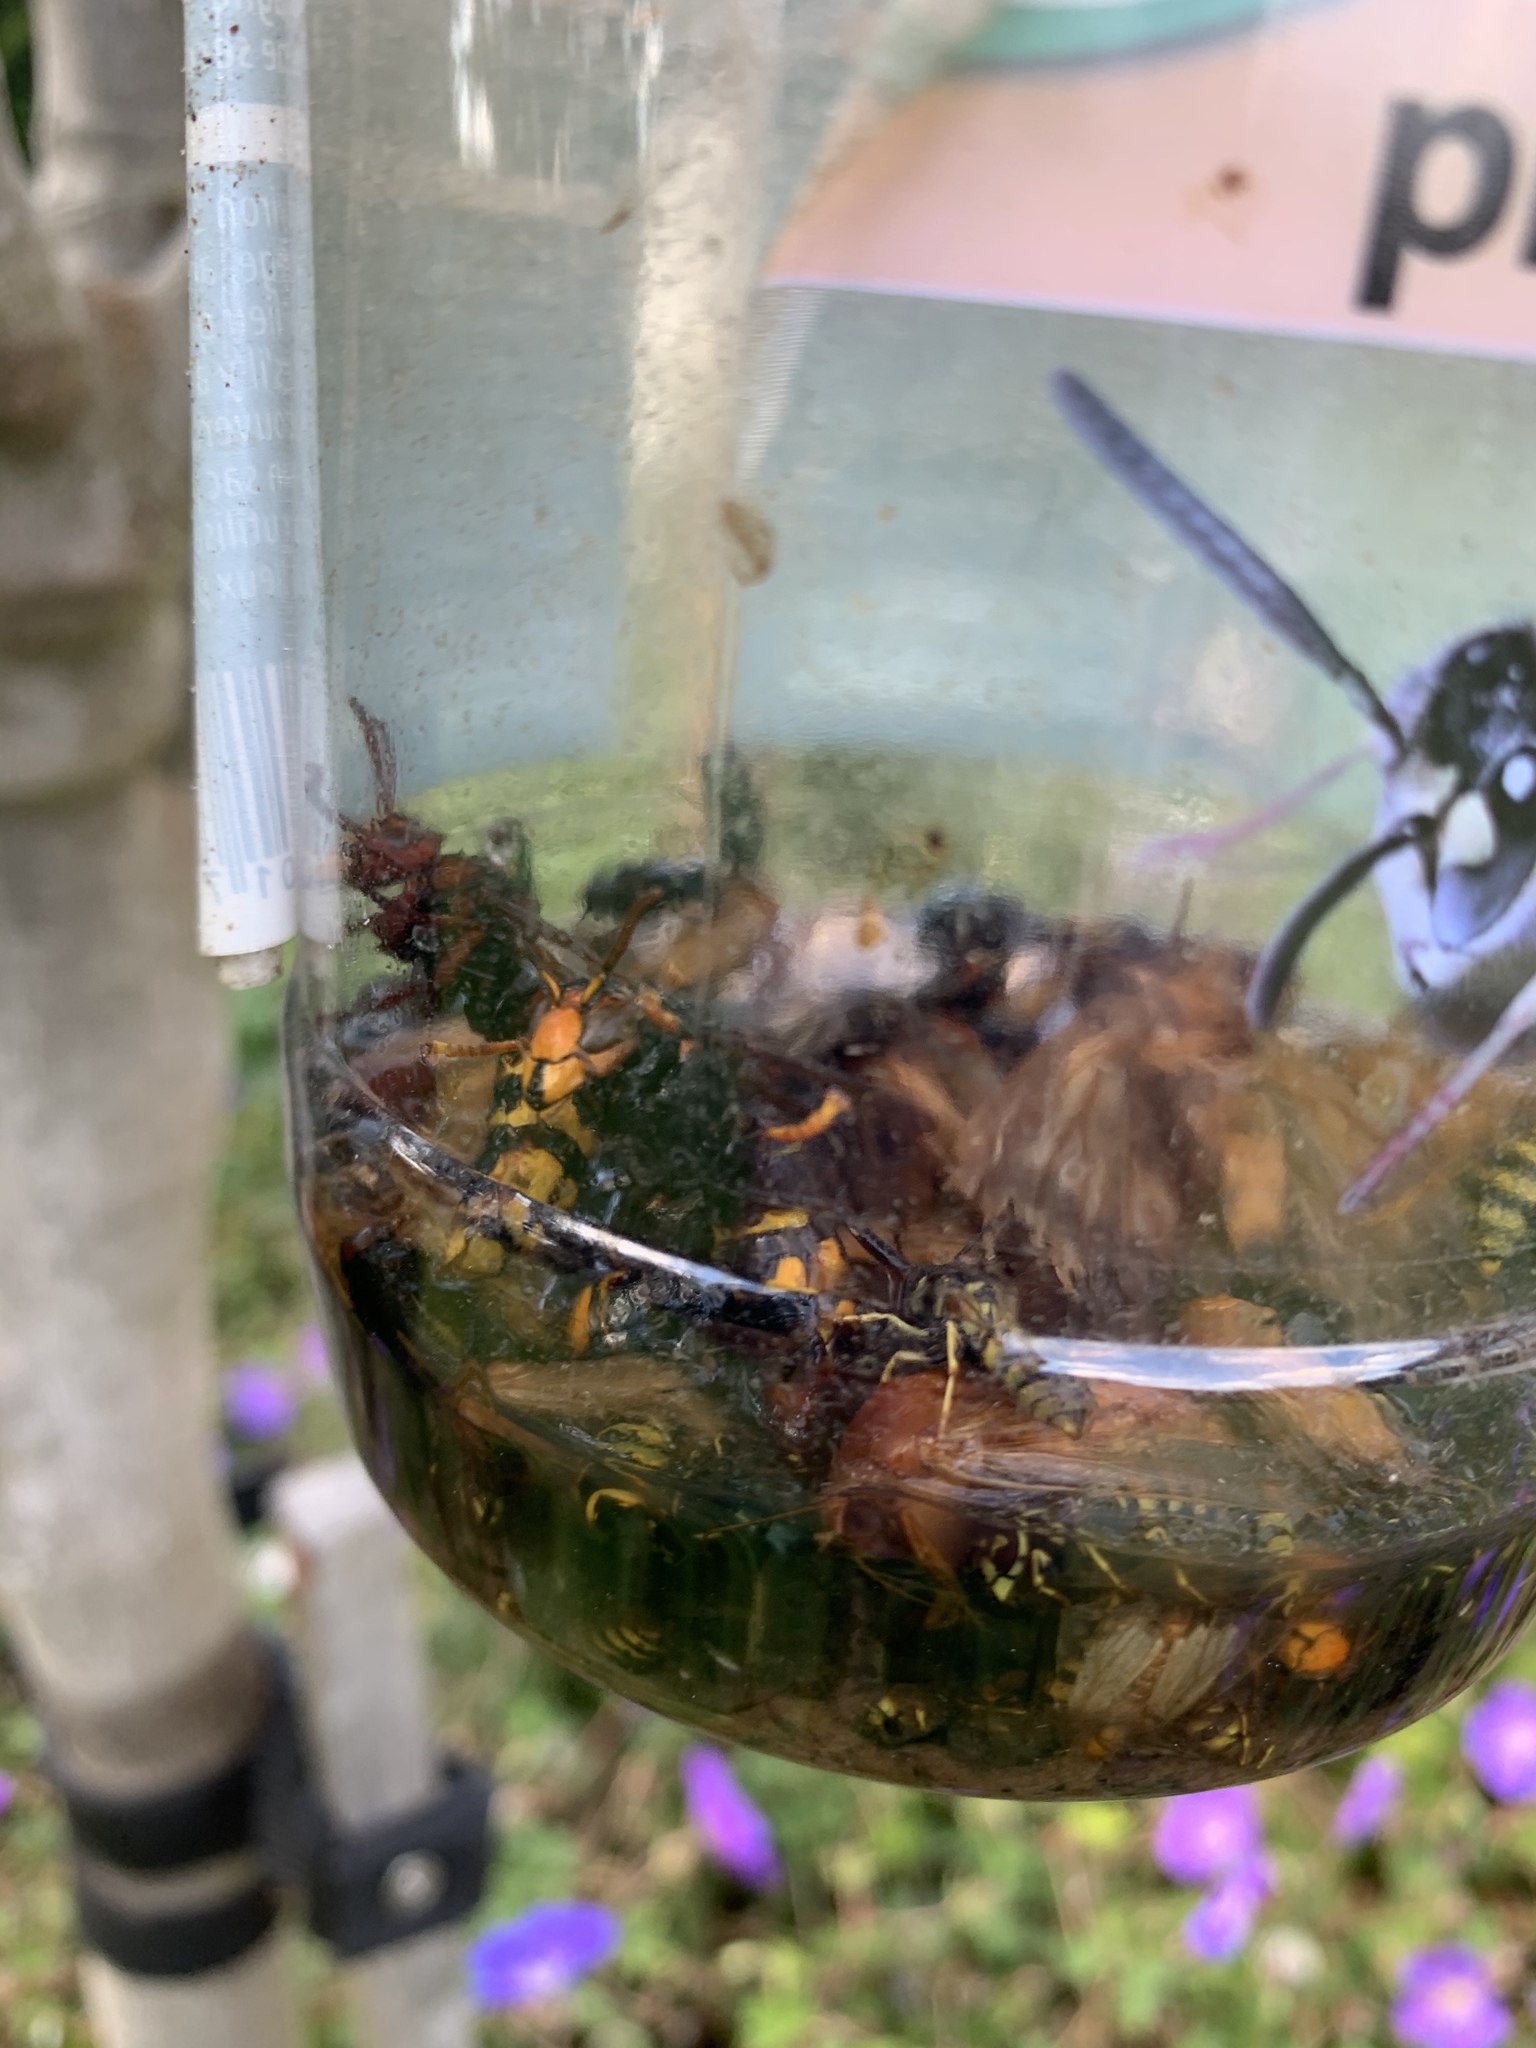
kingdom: Animalia
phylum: Arthropoda
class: Insecta
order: Hymenoptera
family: Vespidae
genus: Vespa
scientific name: Vespa velutina
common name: Asian hornet
